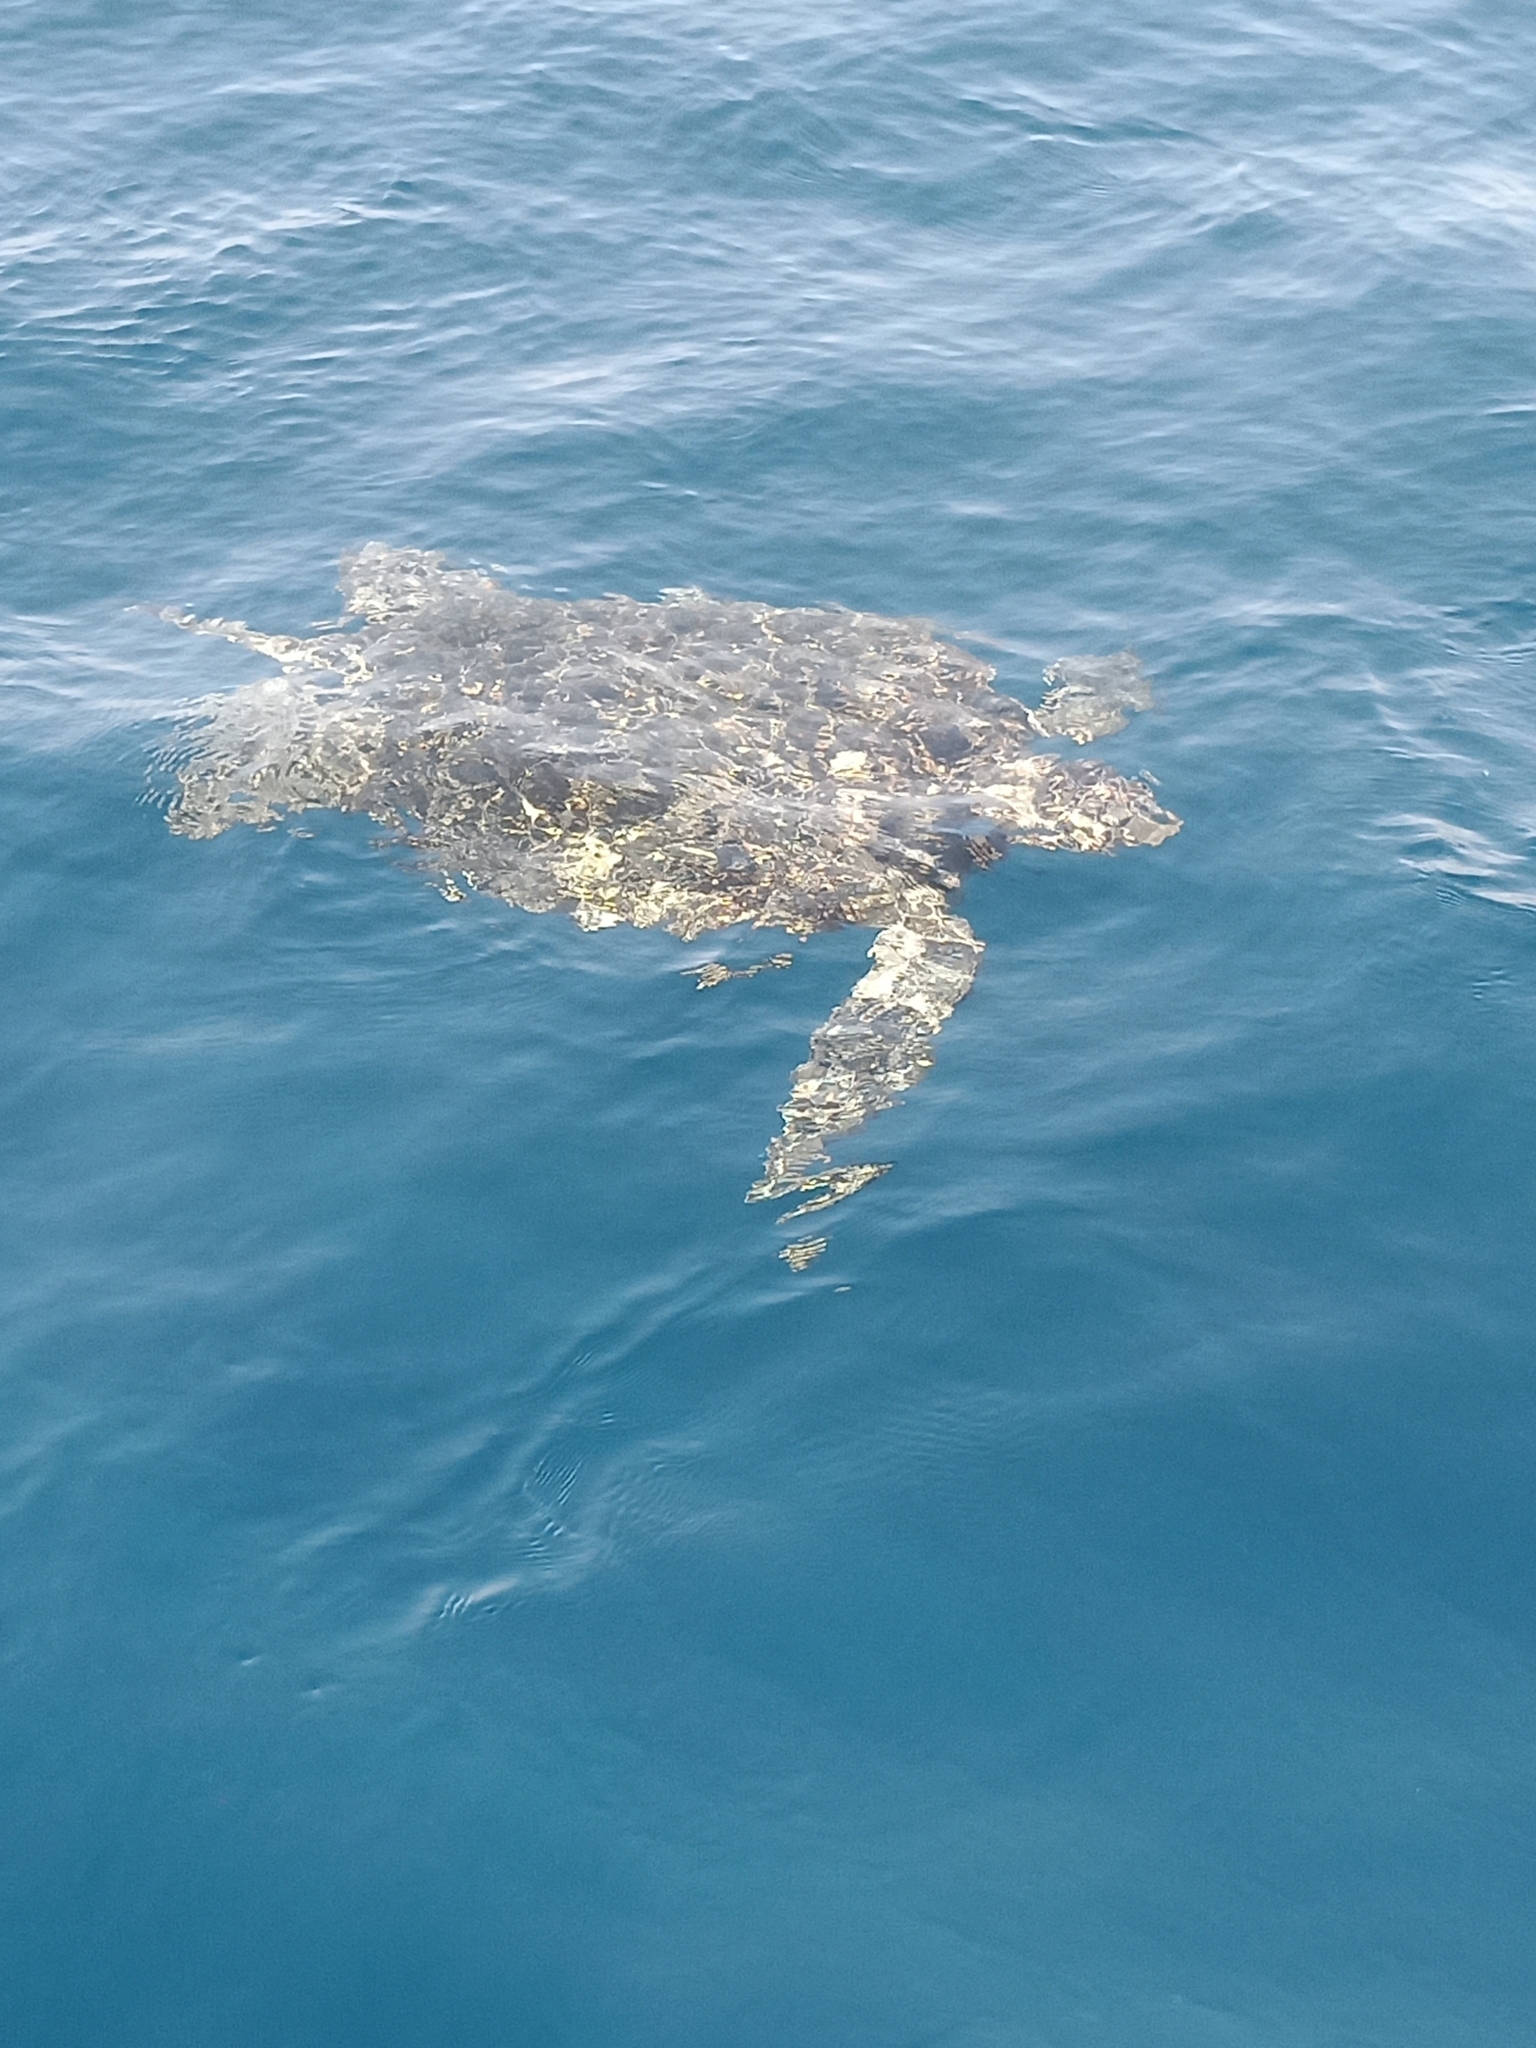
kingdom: Animalia
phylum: Chordata
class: Testudines
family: Cheloniidae
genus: Chelonia
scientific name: Chelonia mydas
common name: Green turtle
